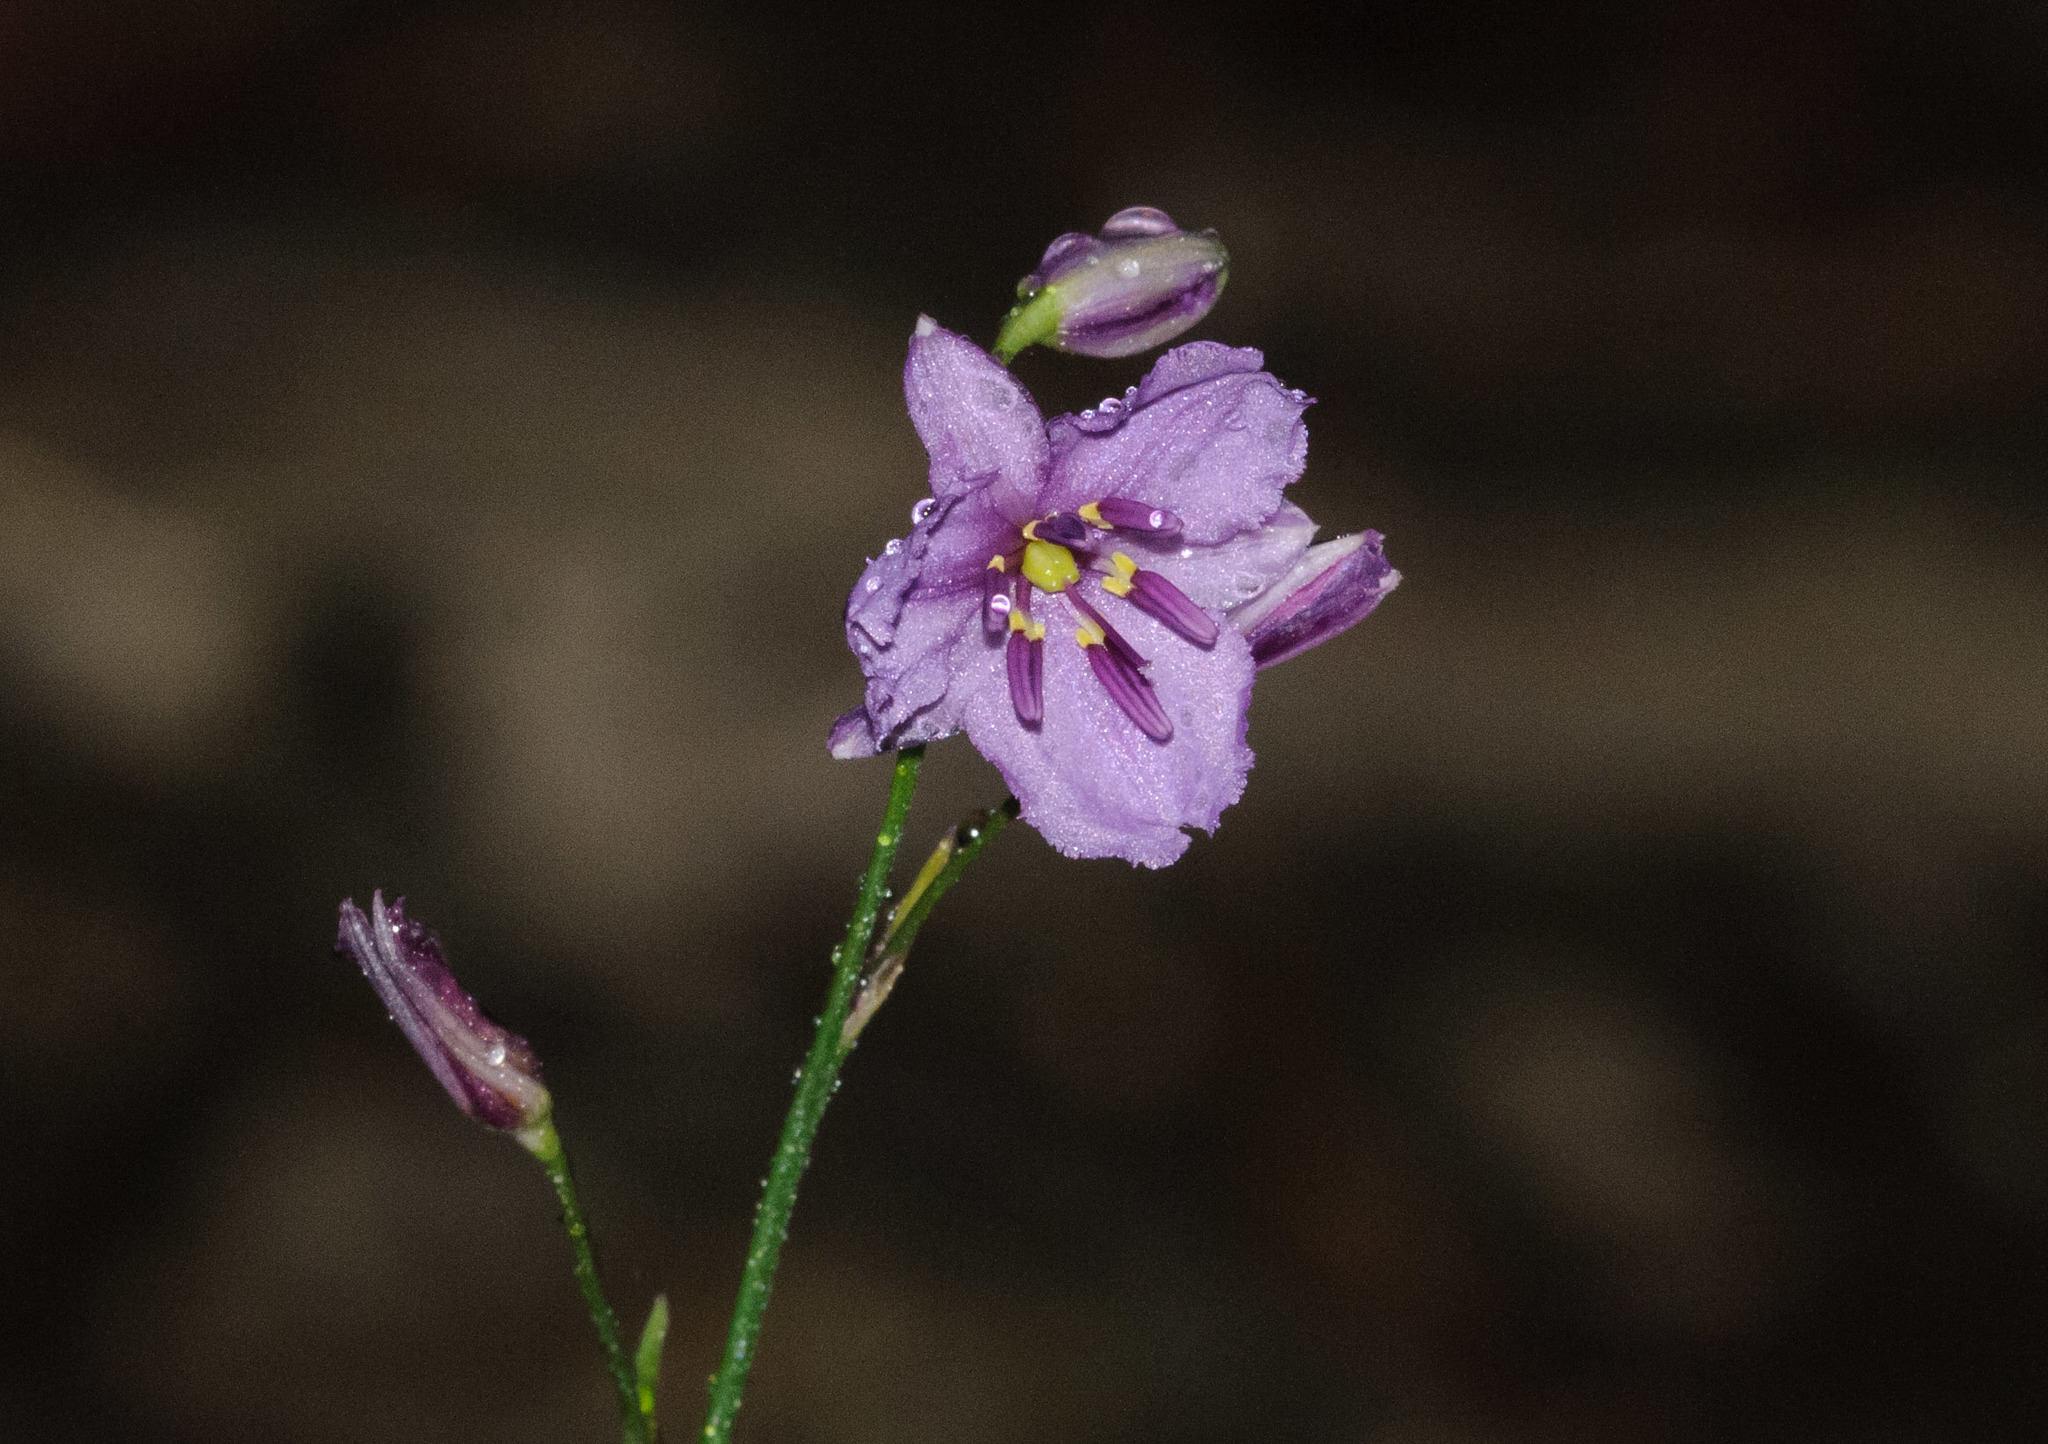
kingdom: Plantae
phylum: Tracheophyta
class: Liliopsida
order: Asparagales
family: Asparagaceae
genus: Arthropodium
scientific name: Arthropodium strictum
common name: Chocolate-lily
